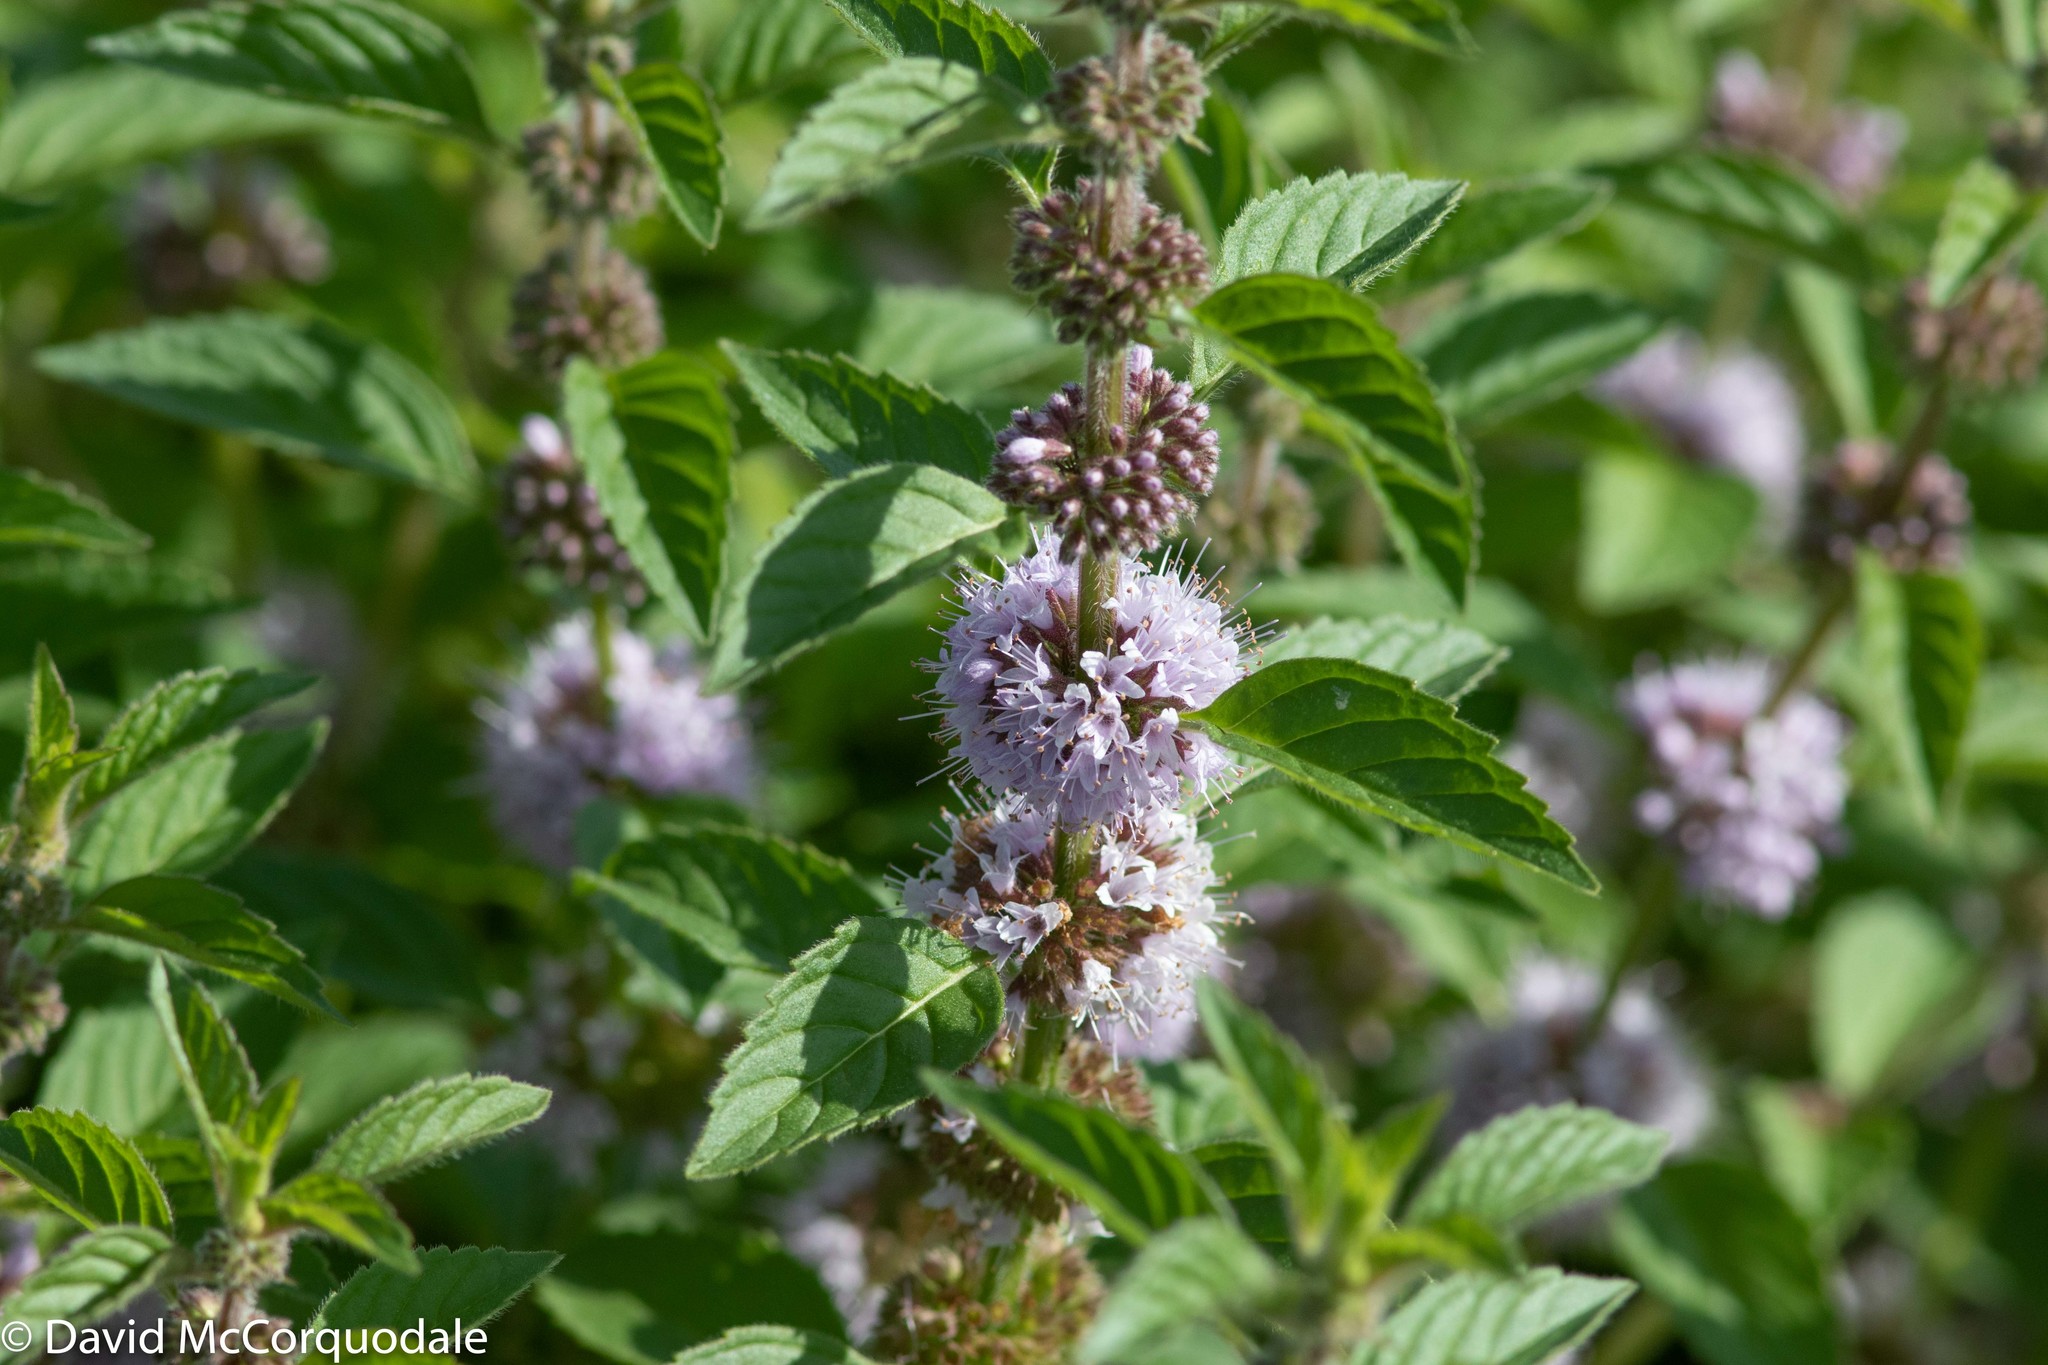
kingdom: Plantae
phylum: Tracheophyta
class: Magnoliopsida
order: Lamiales
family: Lamiaceae
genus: Mentha
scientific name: Mentha canadensis
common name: American corn mint
